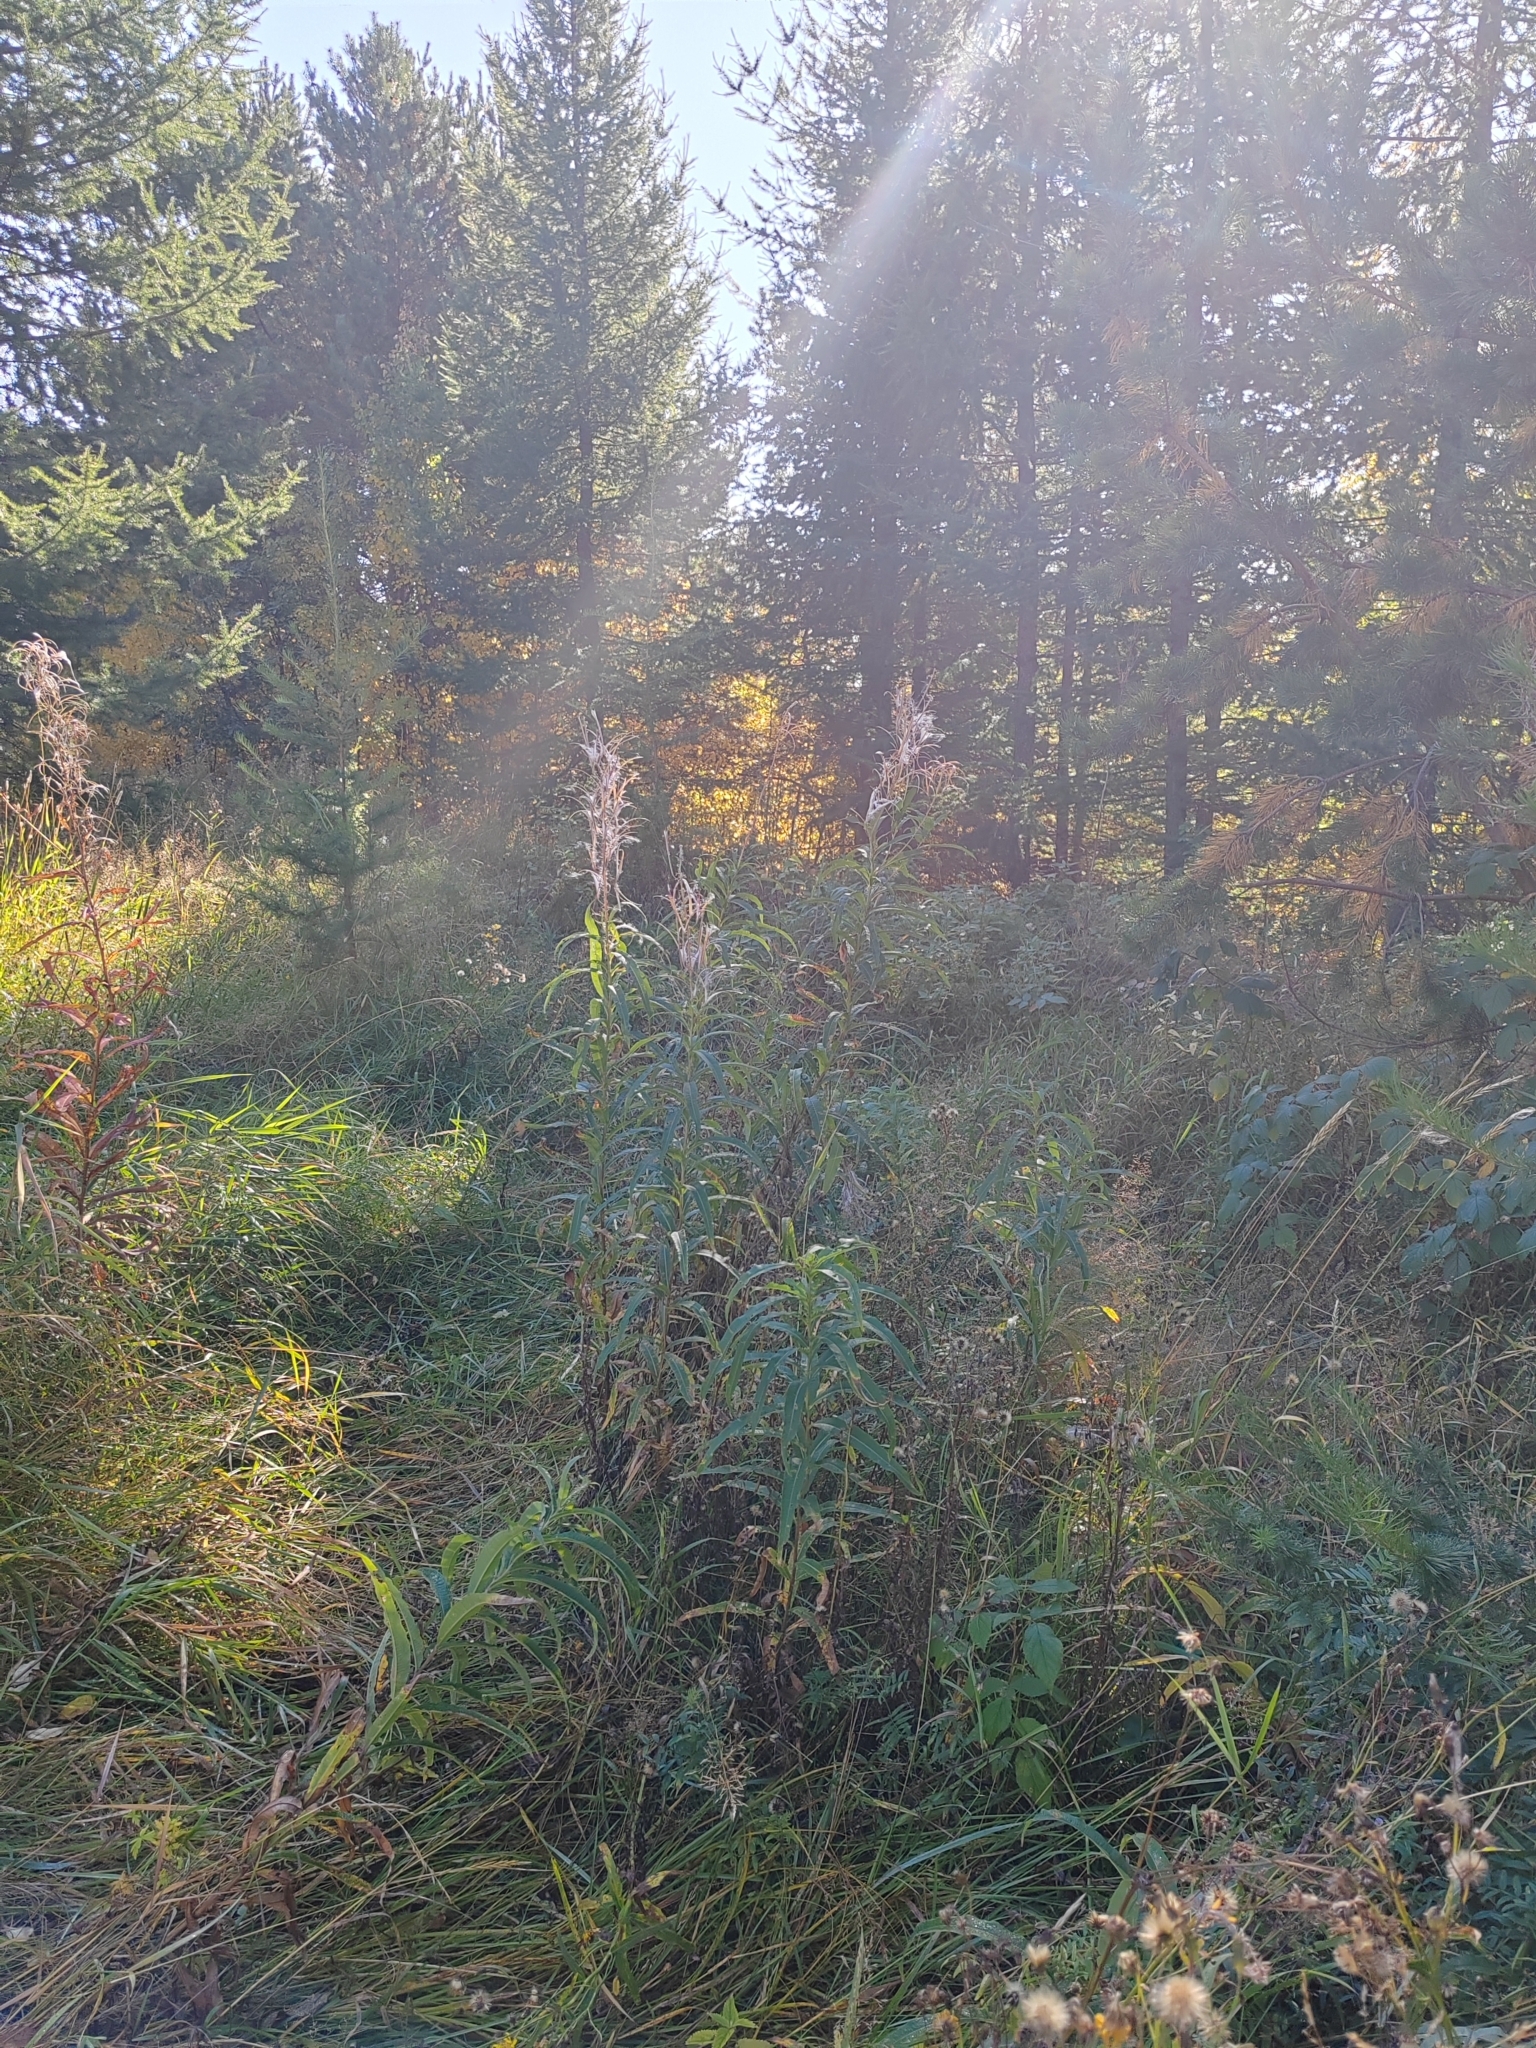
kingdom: Plantae
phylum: Tracheophyta
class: Magnoliopsida
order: Myrtales
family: Onagraceae
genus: Chamaenerion
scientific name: Chamaenerion angustifolium
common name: Fireweed
